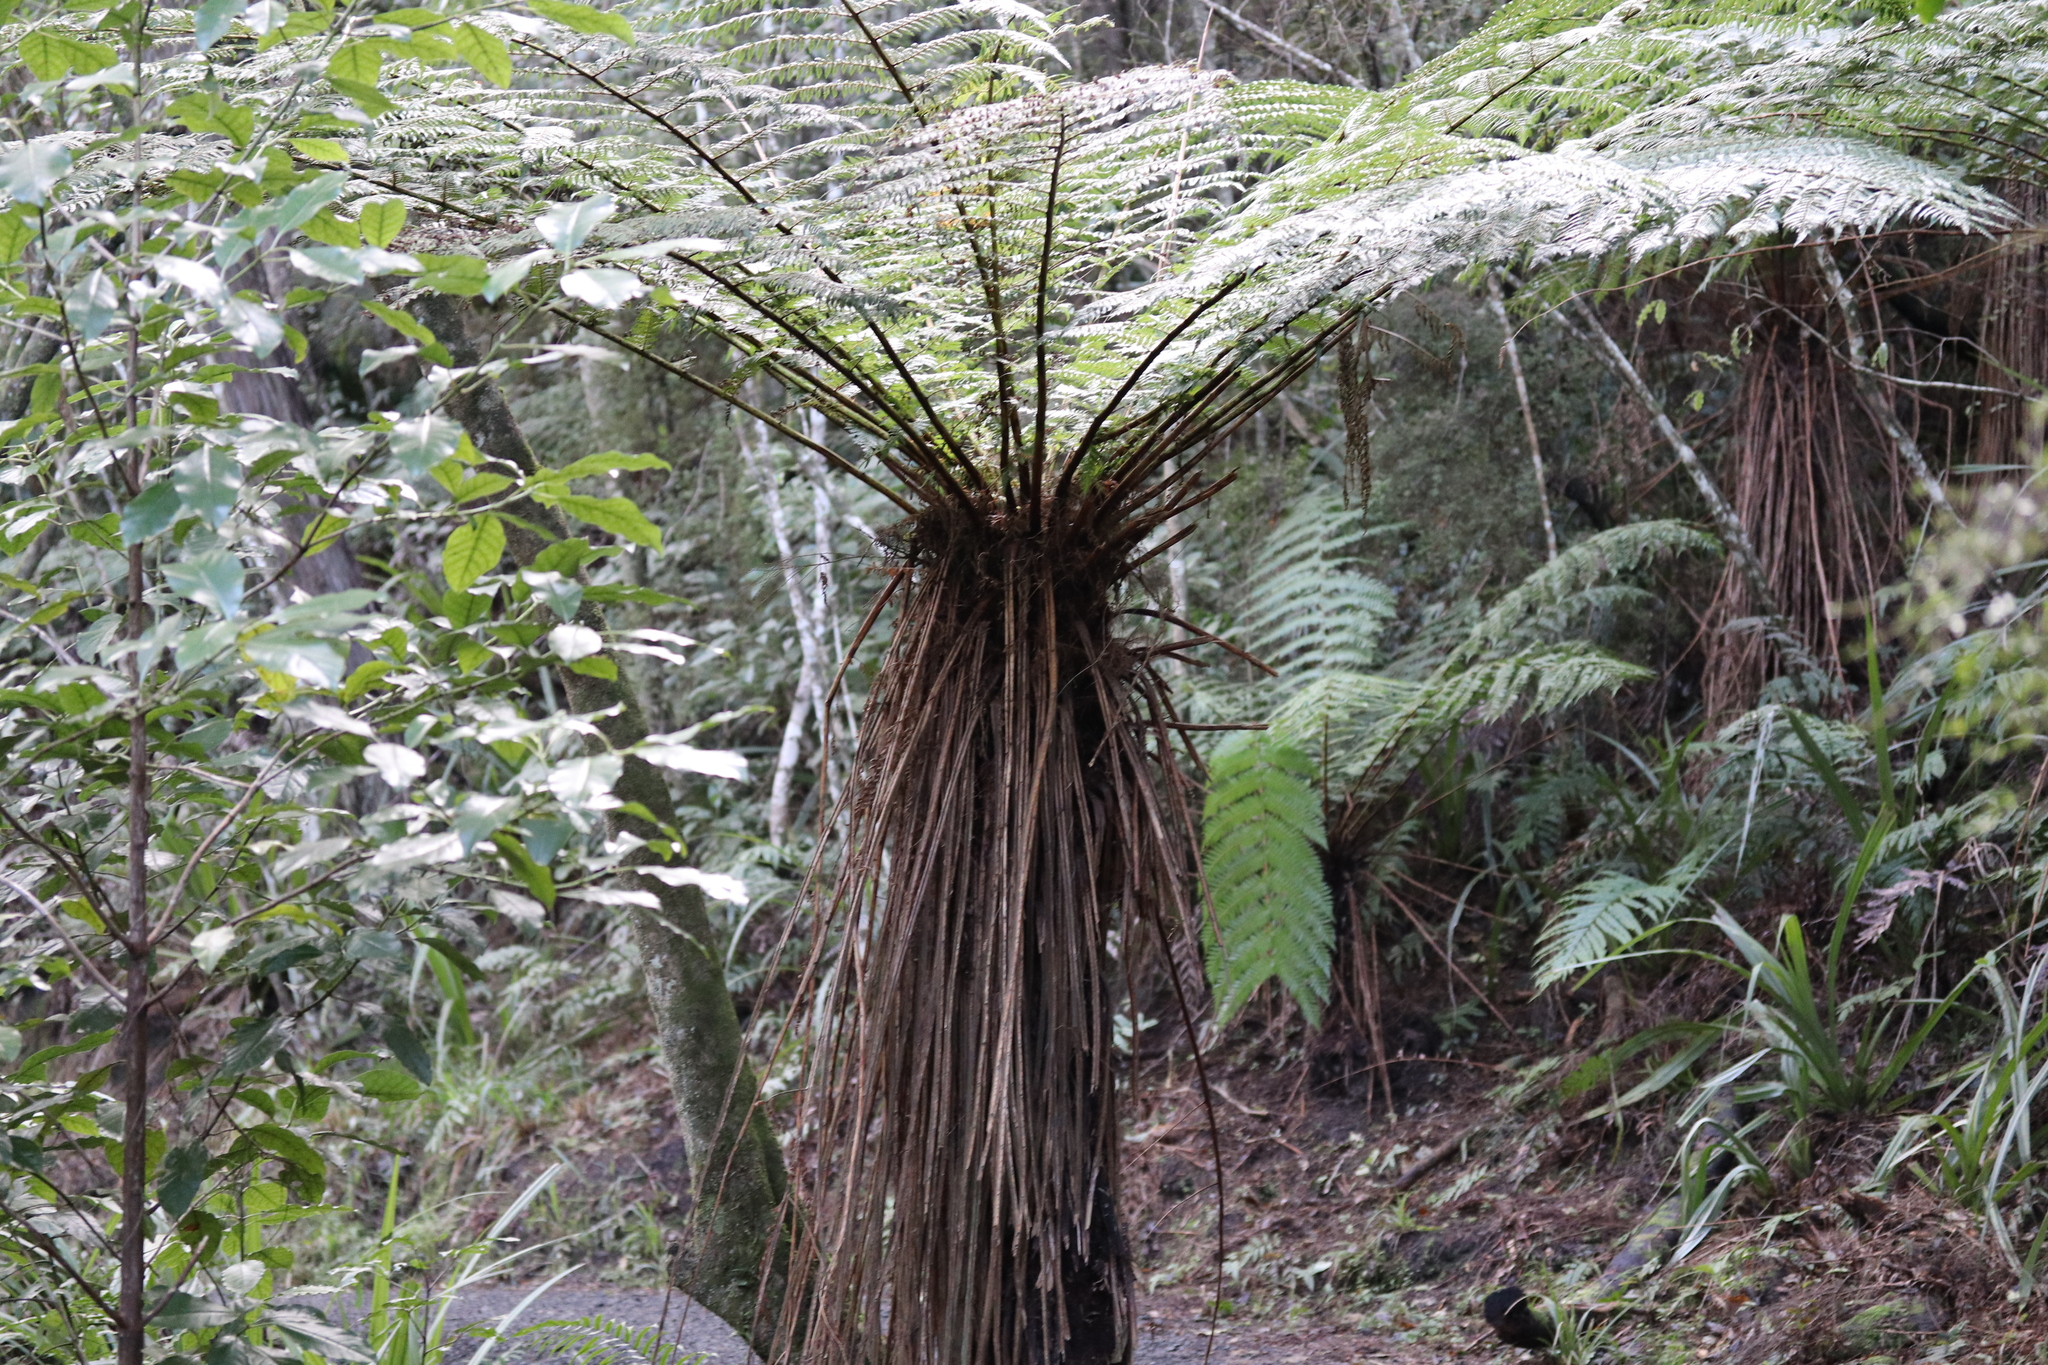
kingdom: Plantae
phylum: Tracheophyta
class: Polypodiopsida
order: Cyatheales
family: Cyatheaceae
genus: Alsophila
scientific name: Alsophila smithii
